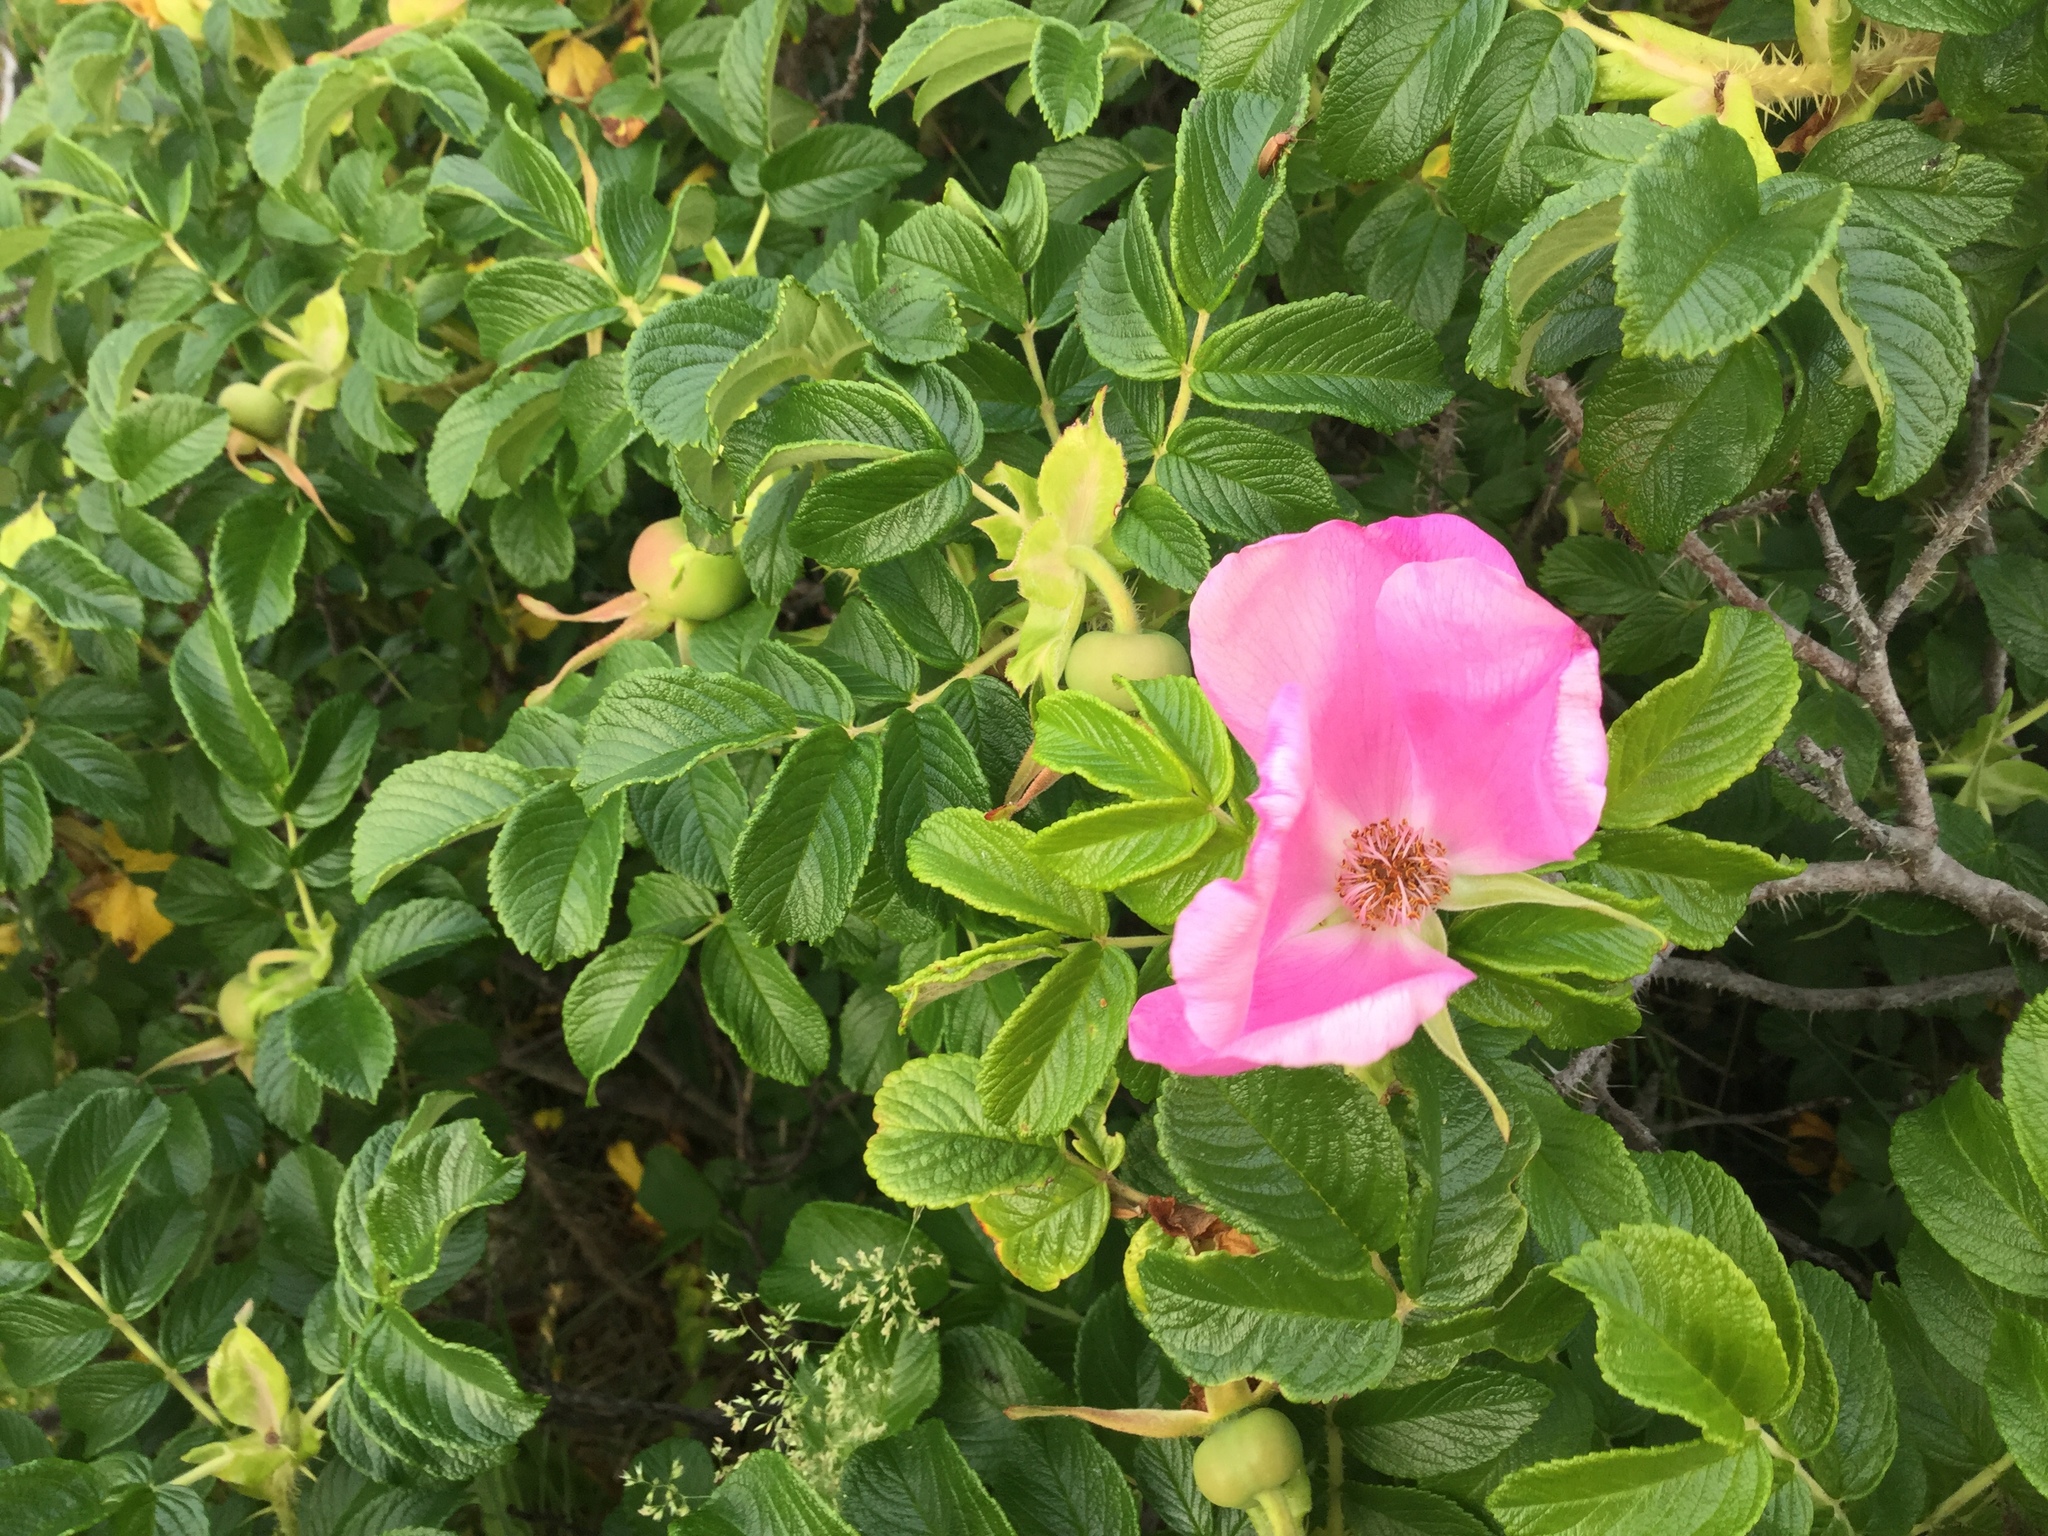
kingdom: Plantae
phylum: Tracheophyta
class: Magnoliopsida
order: Rosales
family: Rosaceae
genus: Rosa
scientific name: Rosa rugosa
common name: Japanese rose
